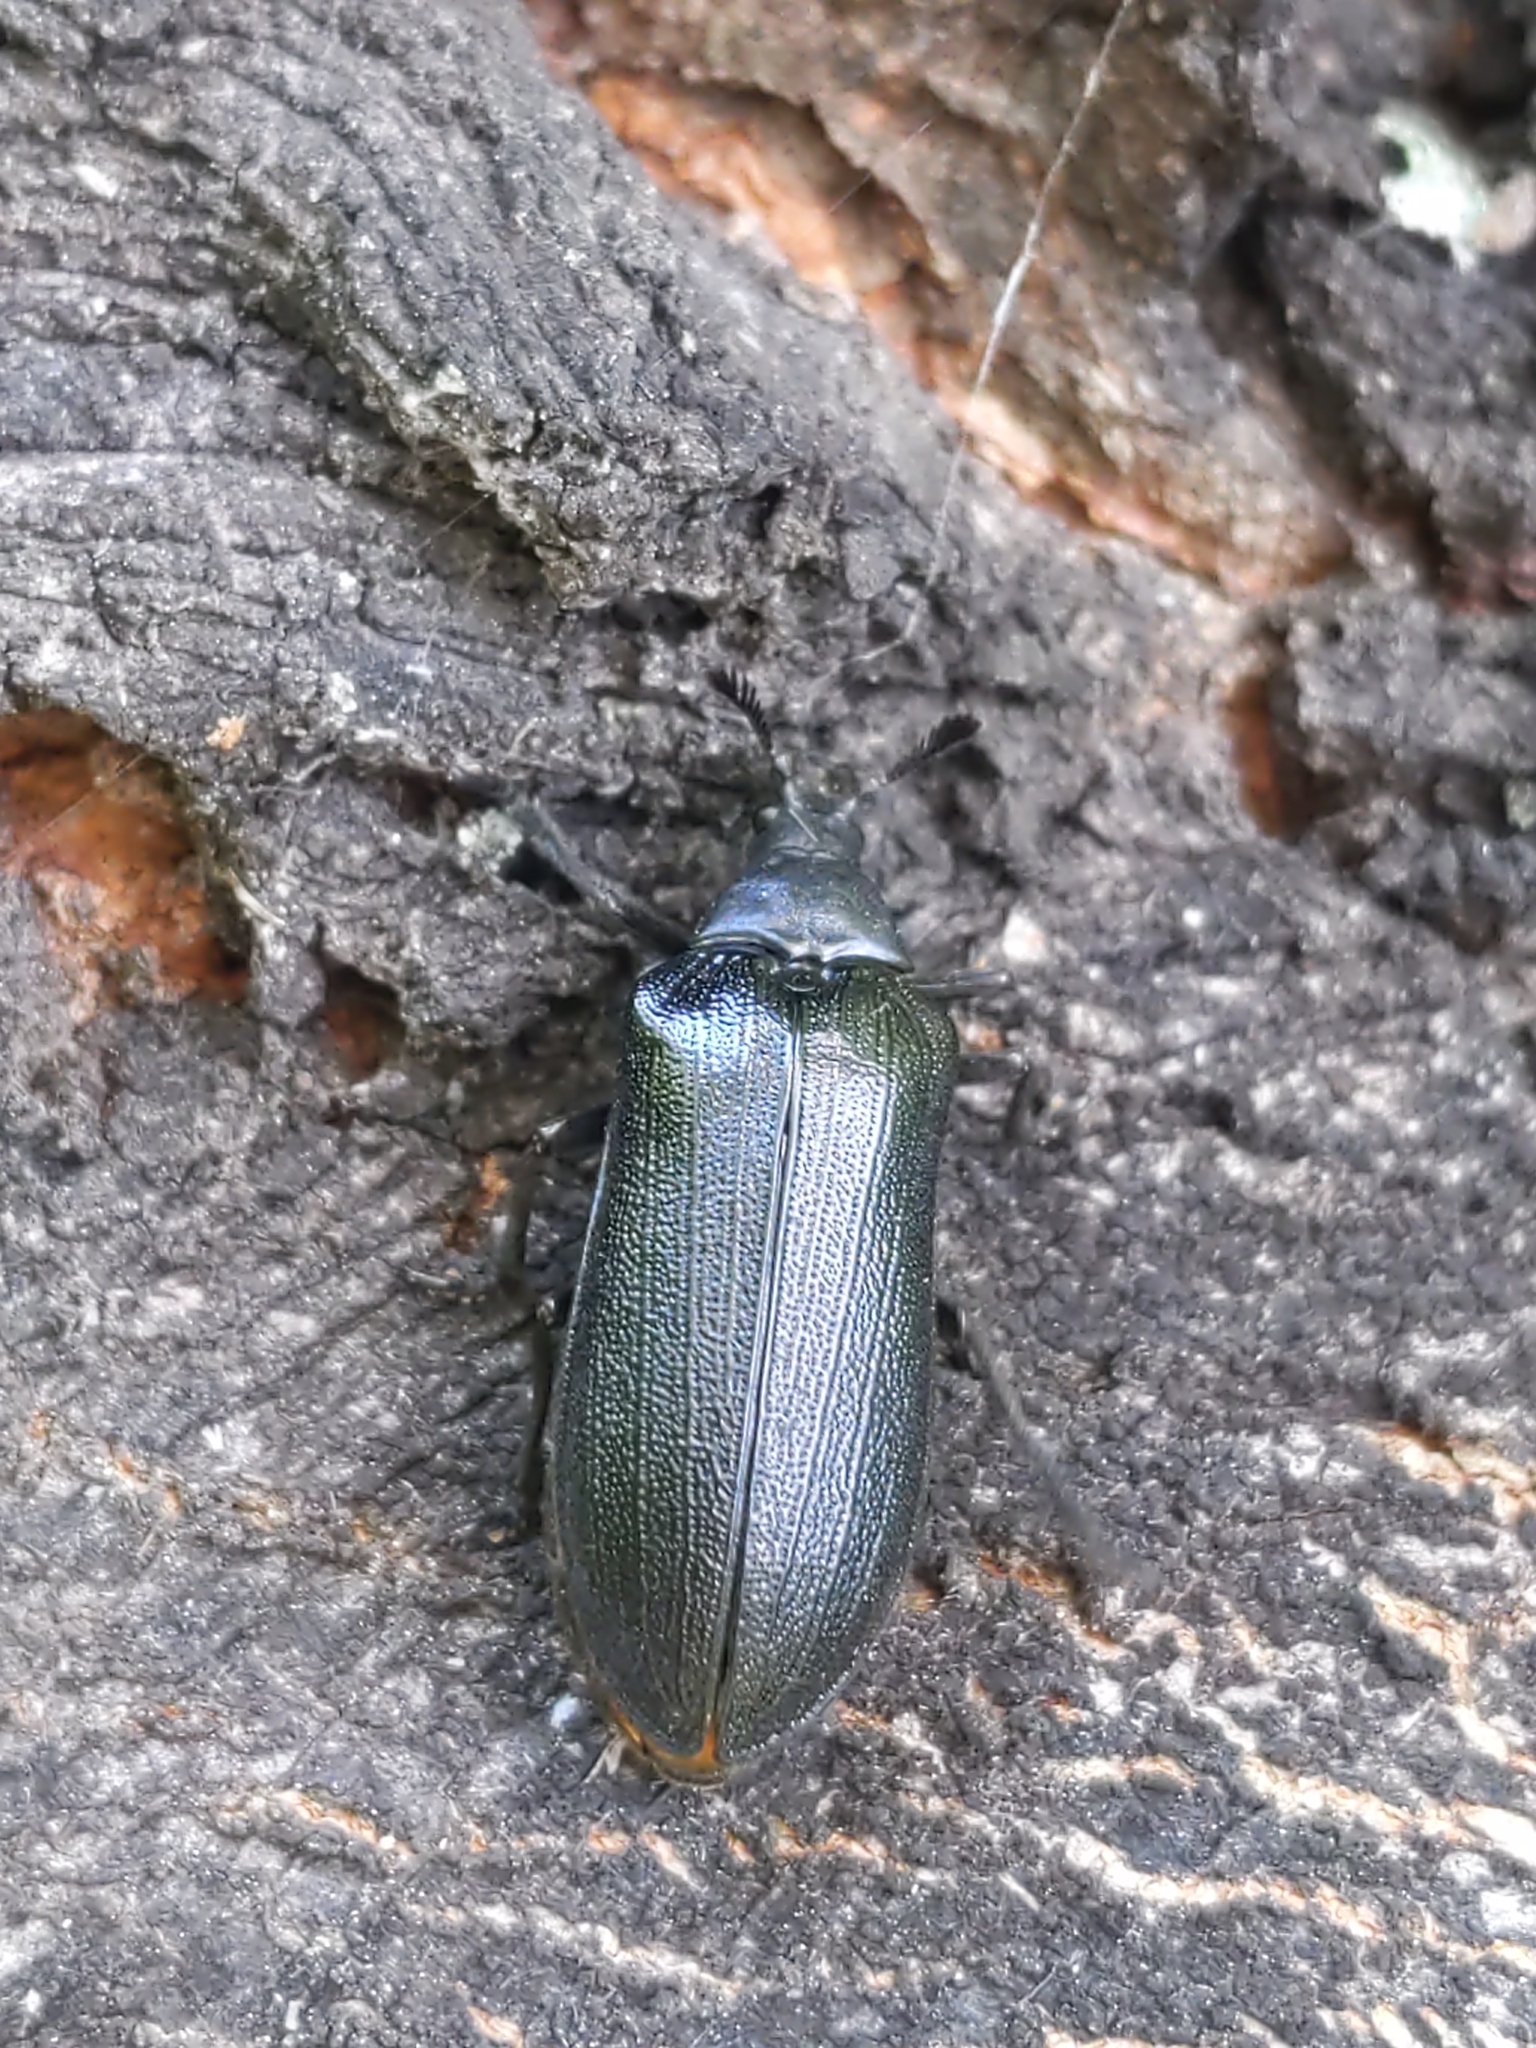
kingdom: Animalia
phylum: Arthropoda
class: Insecta
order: Coleoptera
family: Rhipiceridae
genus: Sandalus
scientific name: Sandalus niger
